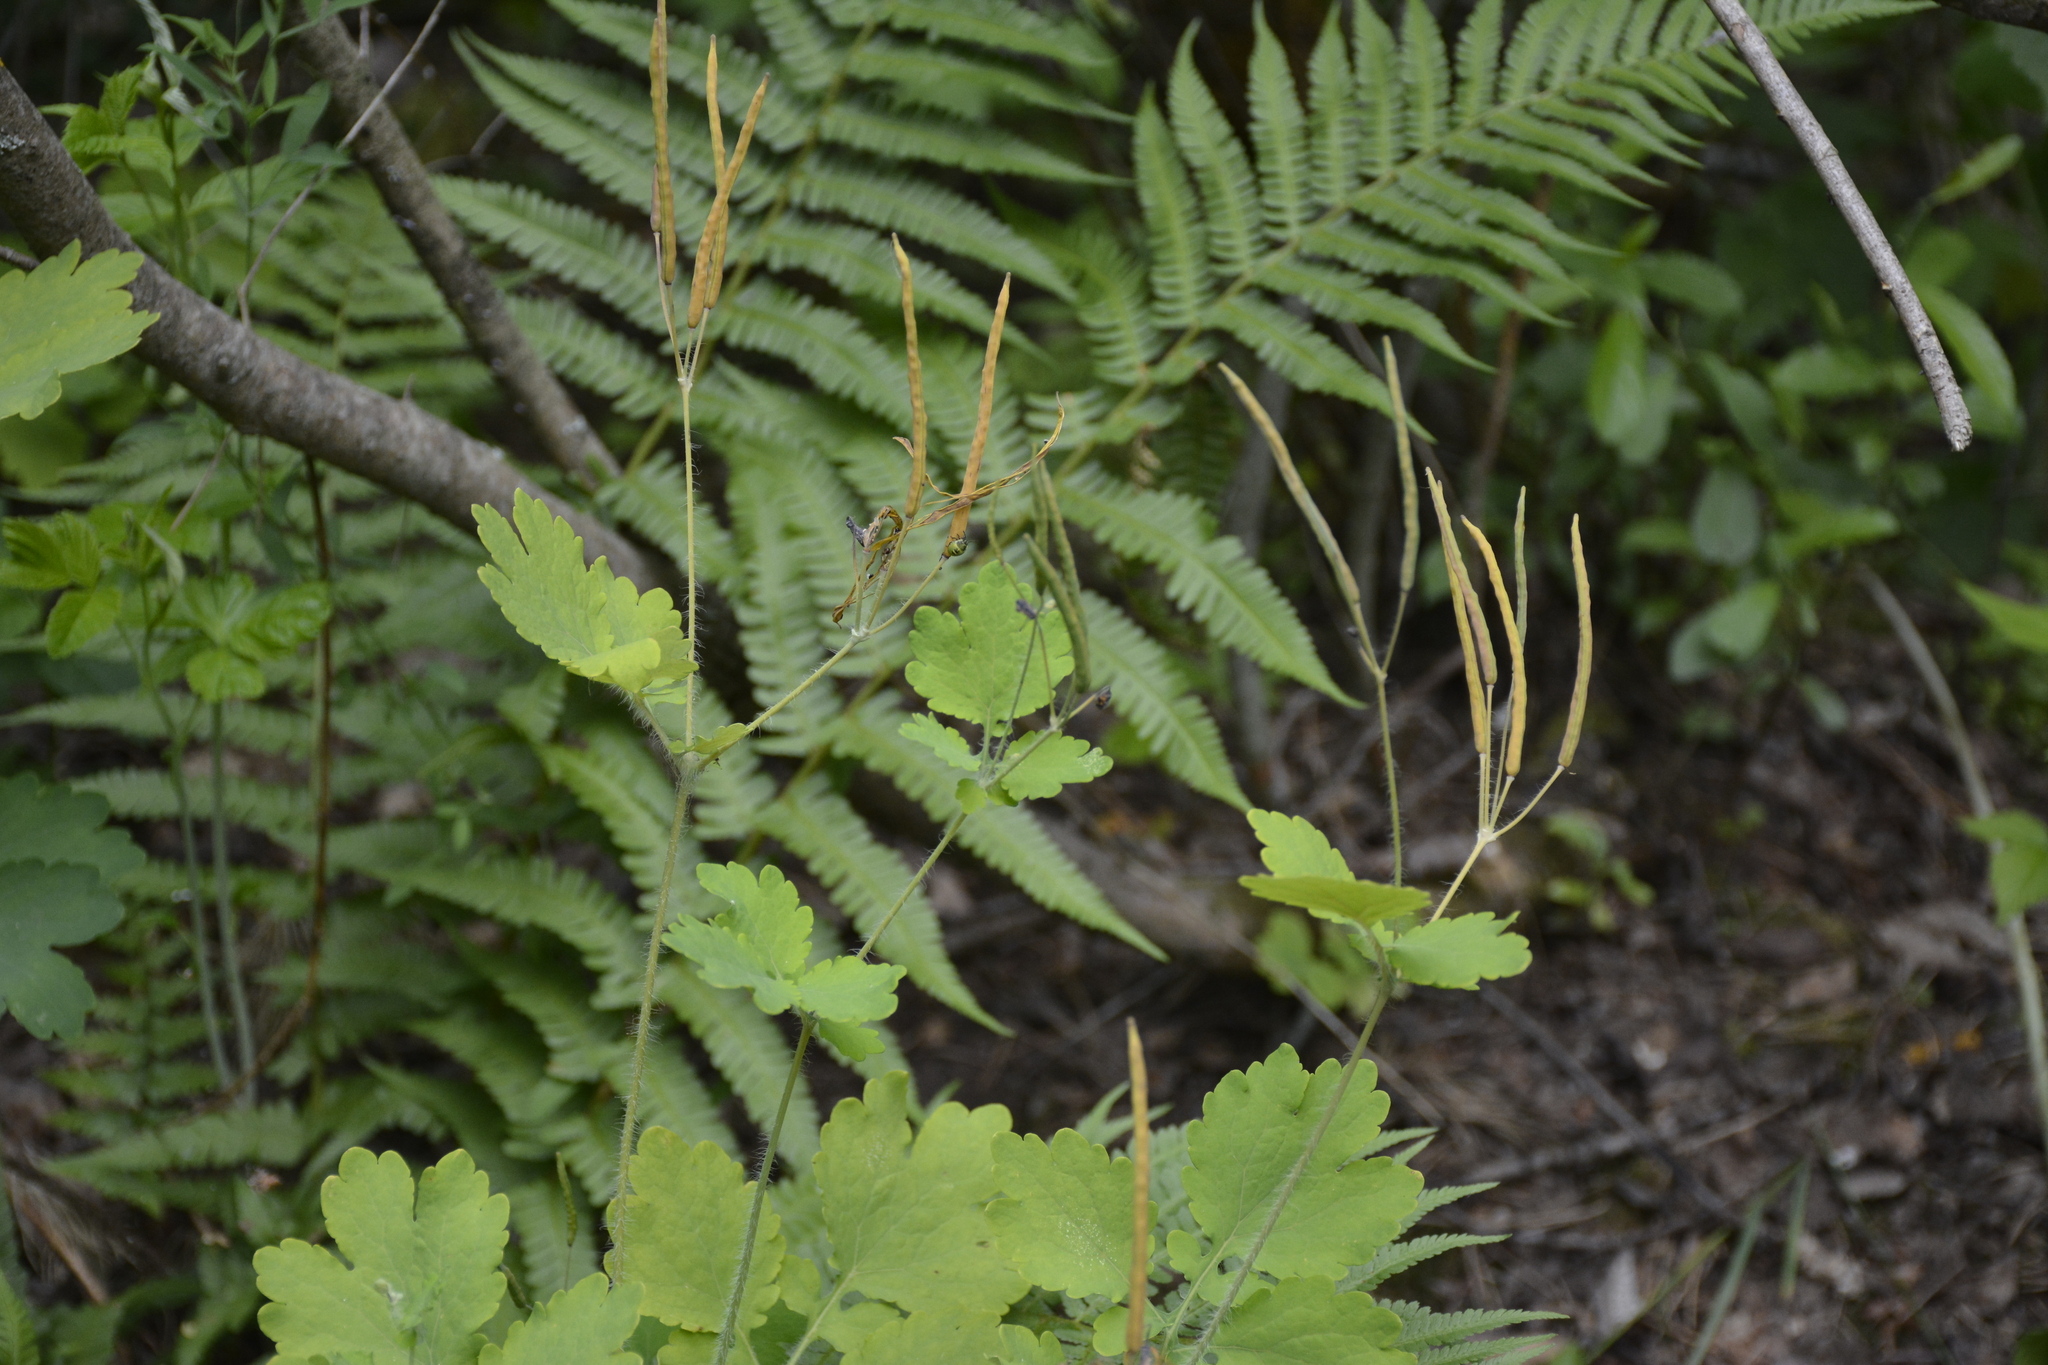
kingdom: Plantae
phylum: Tracheophyta
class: Magnoliopsida
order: Ranunculales
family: Papaveraceae
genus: Chelidonium
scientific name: Chelidonium majus
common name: Greater celandine
